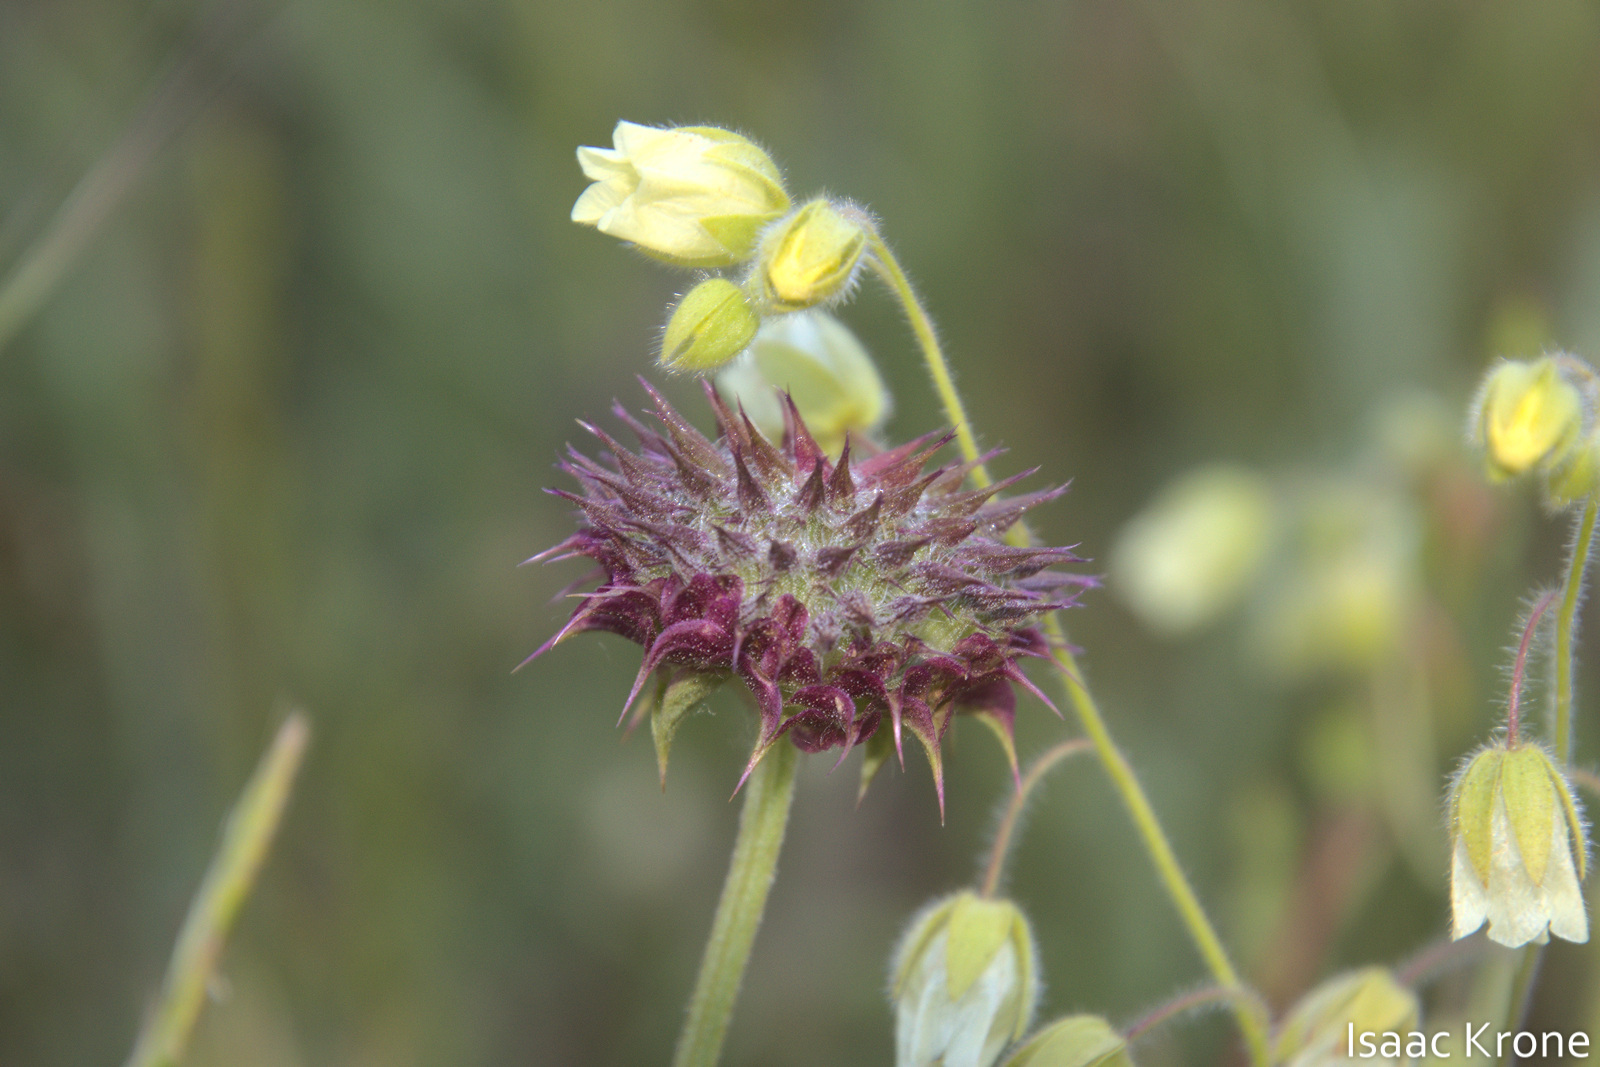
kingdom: Plantae
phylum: Tracheophyta
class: Magnoliopsida
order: Lamiales
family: Lamiaceae
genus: Salvia
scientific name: Salvia columbariae
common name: Chia
